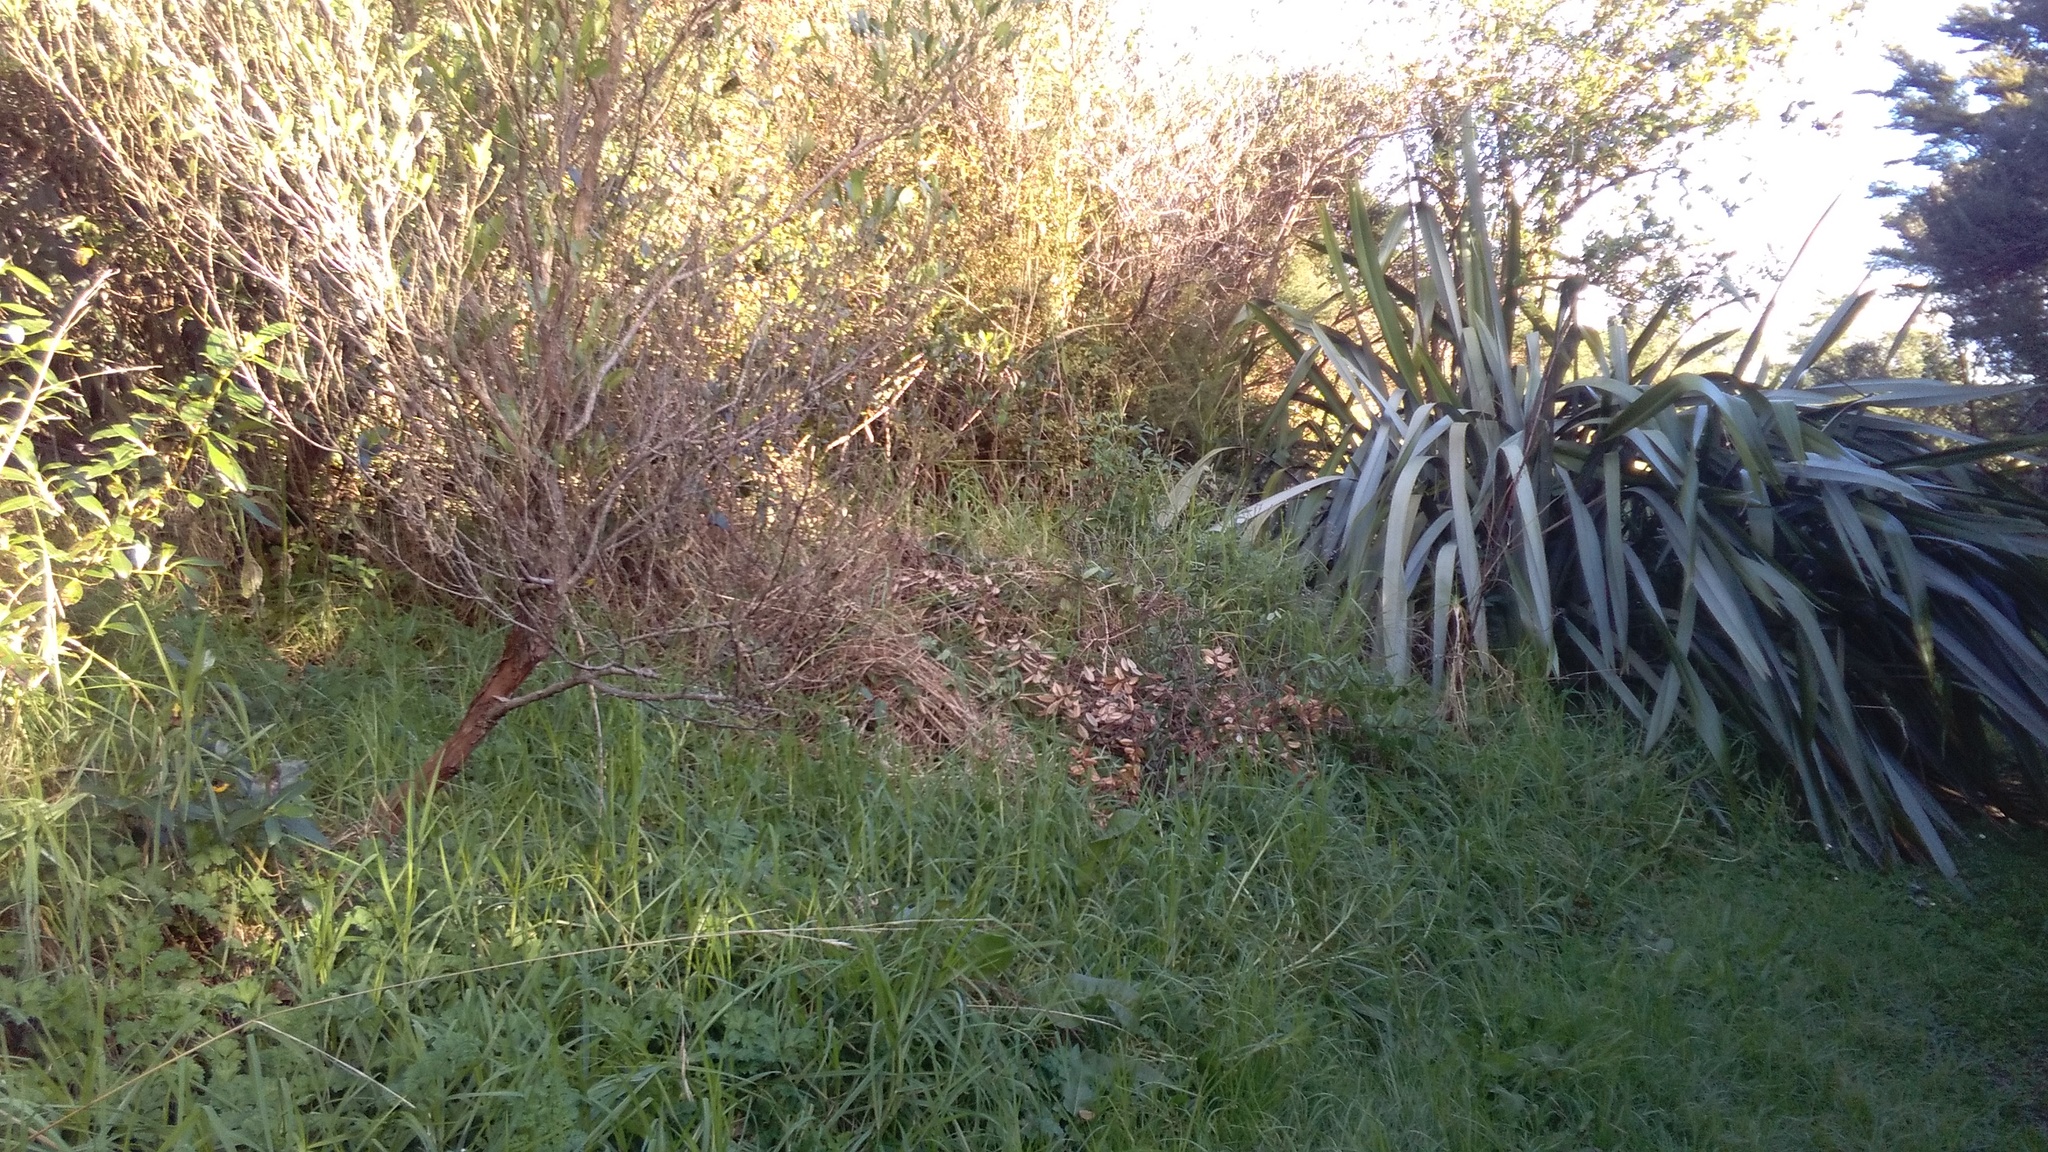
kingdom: Plantae
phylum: Tracheophyta
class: Liliopsida
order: Poales
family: Poaceae
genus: Cenchrus
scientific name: Cenchrus clandestinus
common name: Kikuyugrass
